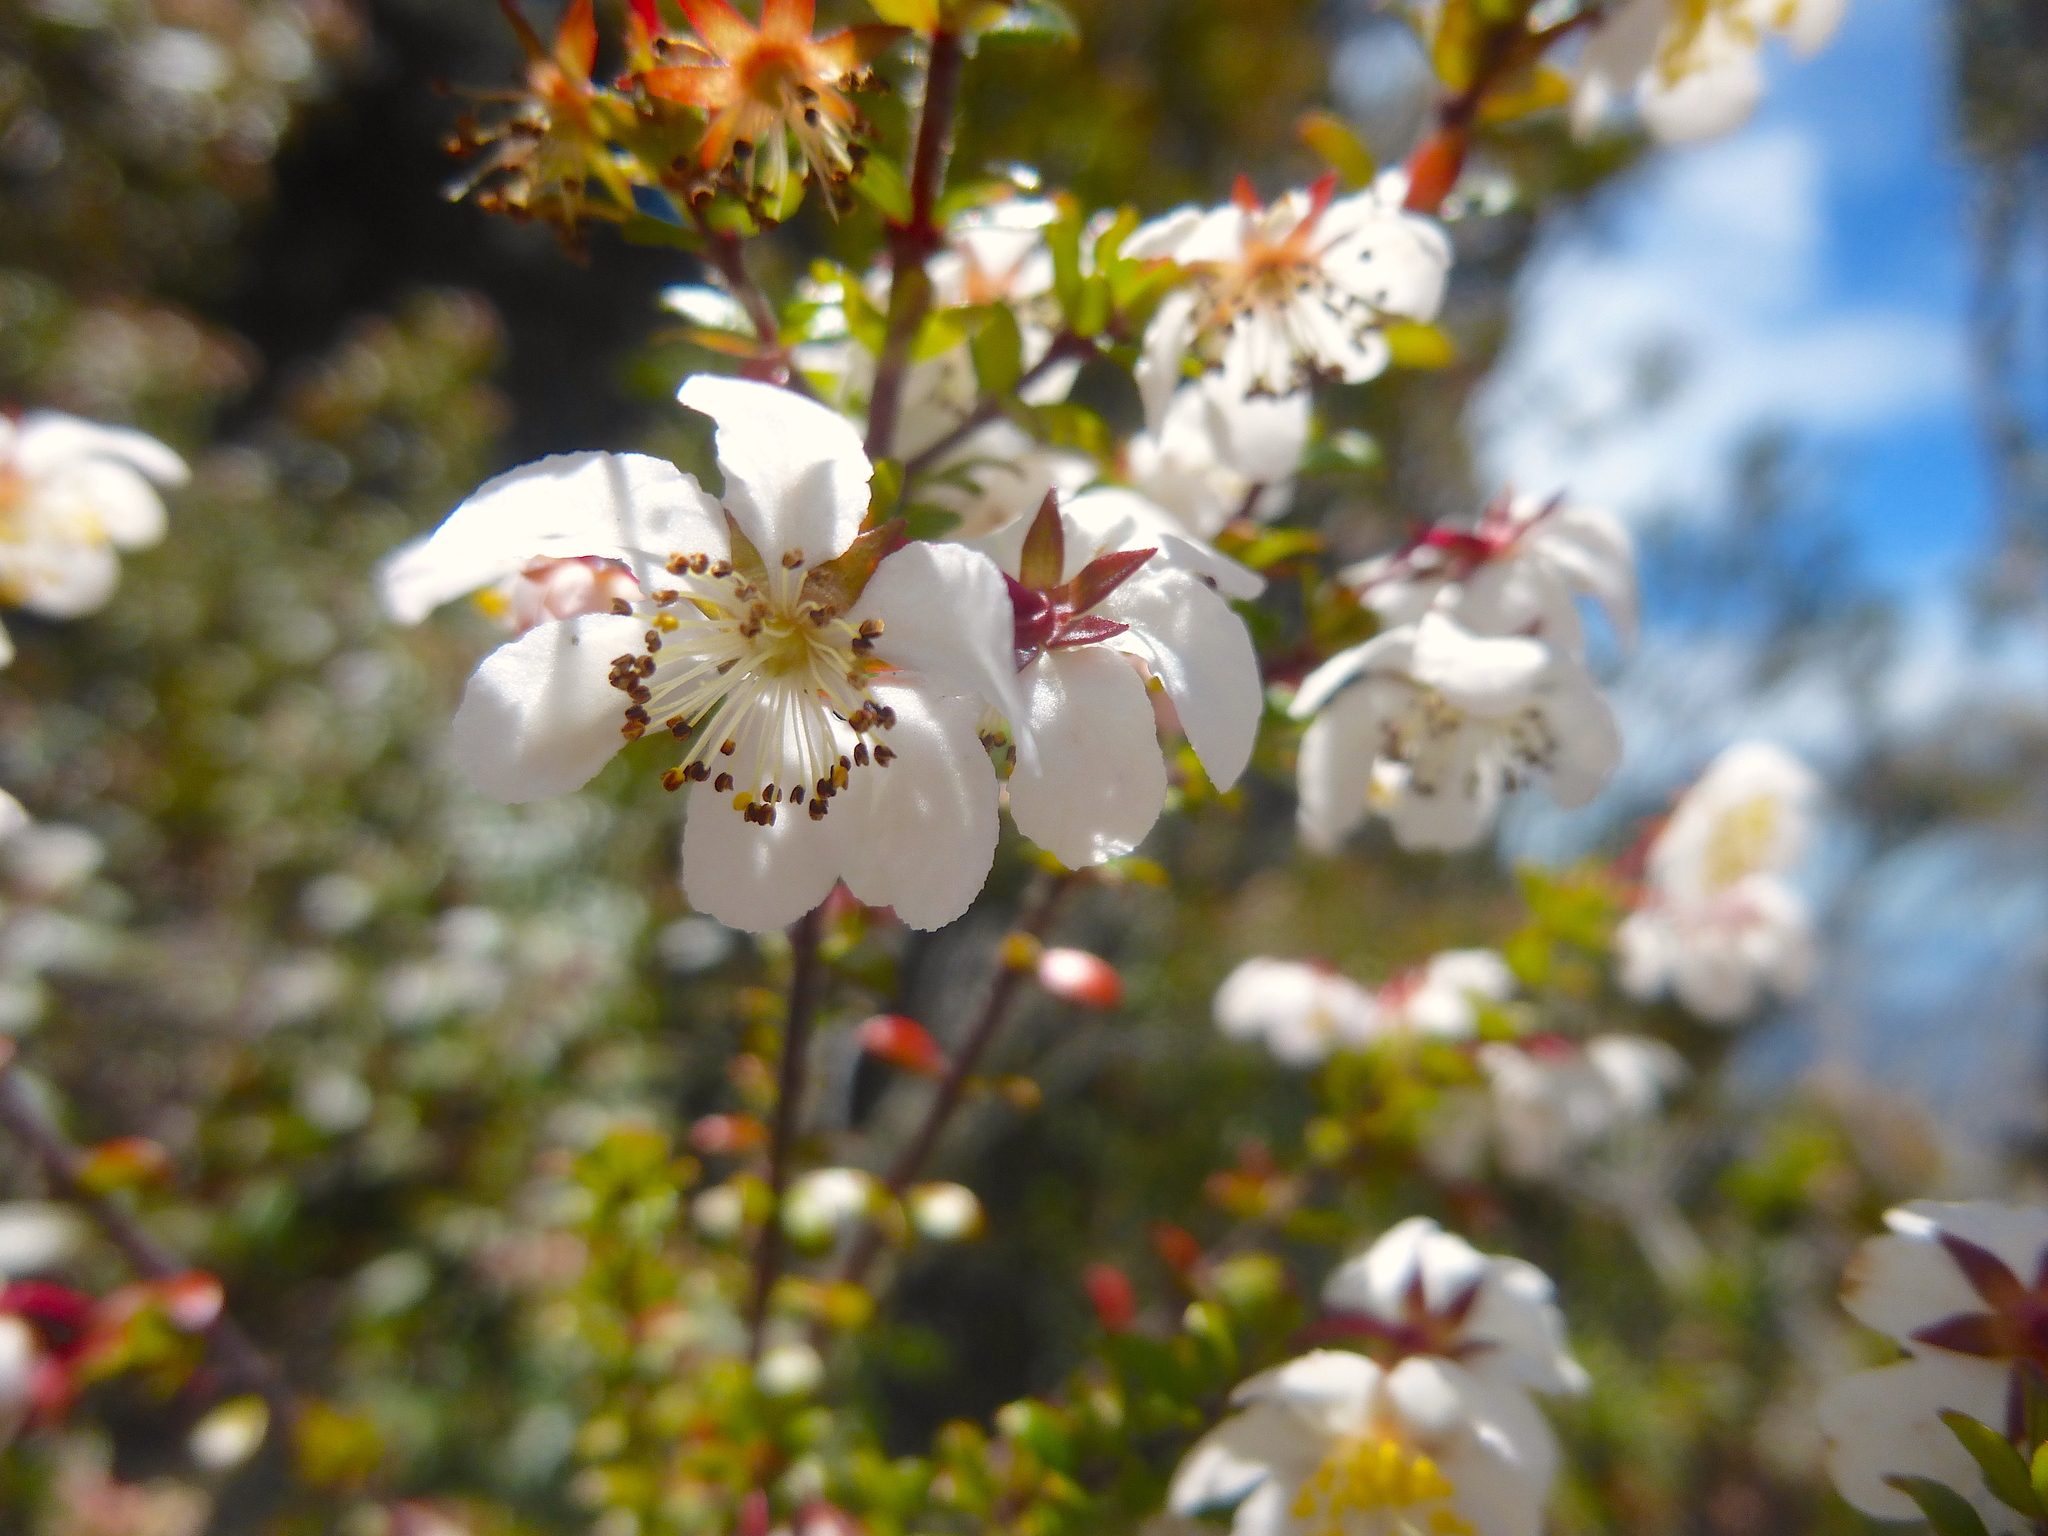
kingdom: Plantae
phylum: Tracheophyta
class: Magnoliopsida
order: Oxalidales
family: Cunoniaceae
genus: Bauera
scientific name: Bauera rubioides
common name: River-rose
